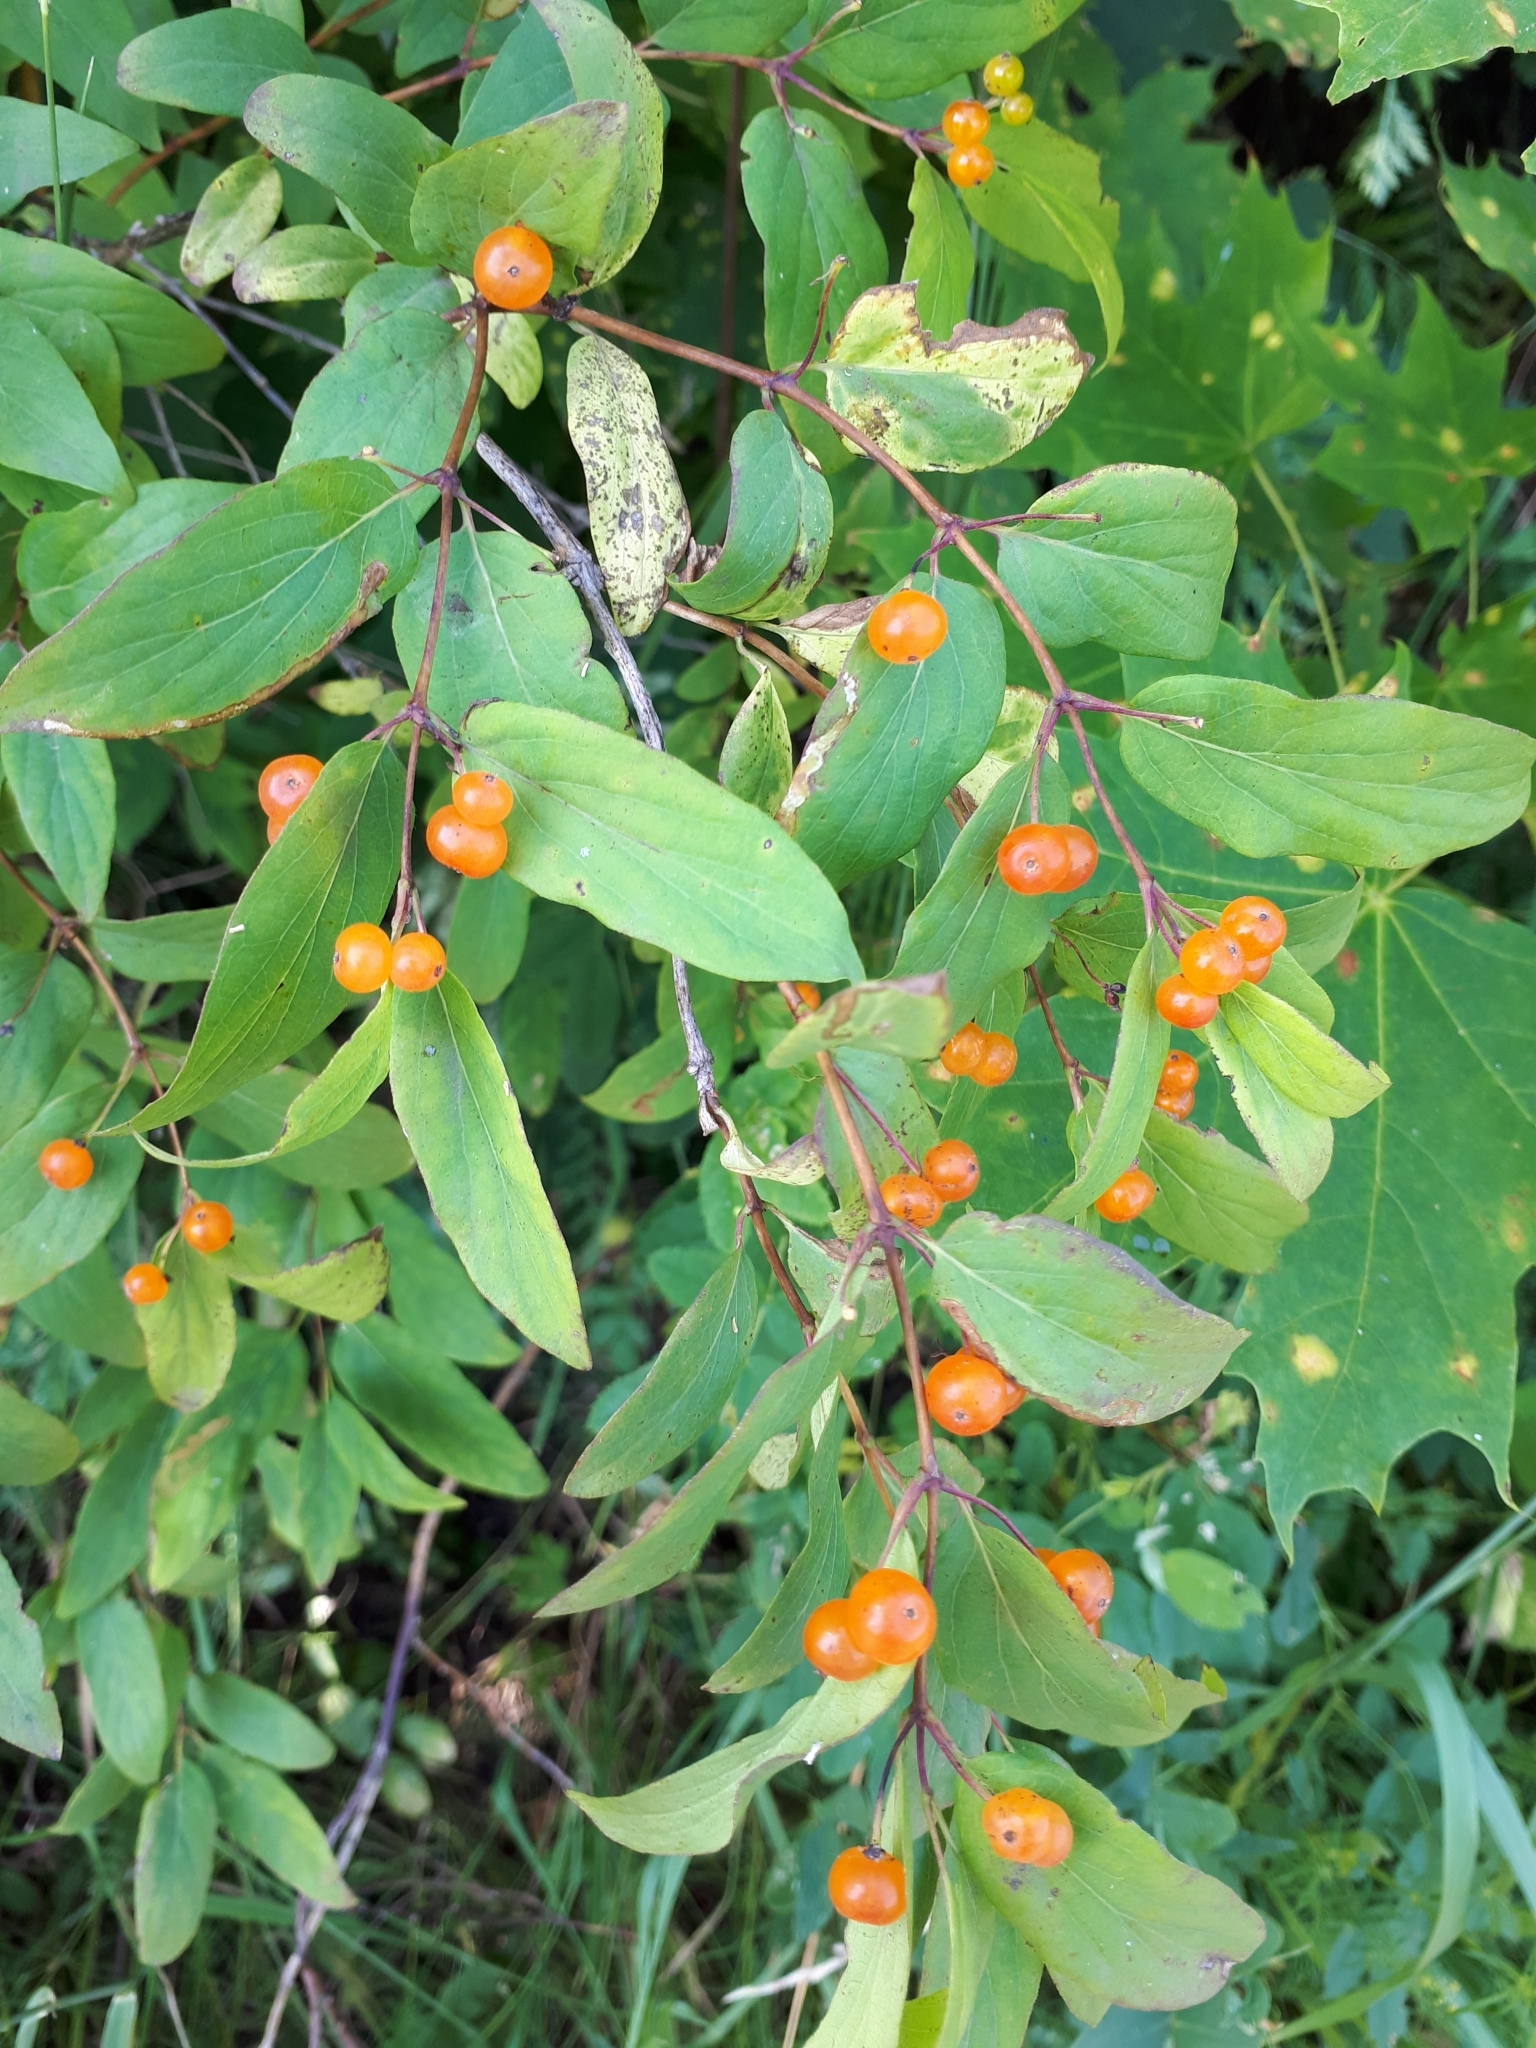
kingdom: Plantae
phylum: Tracheophyta
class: Magnoliopsida
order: Dipsacales
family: Caprifoliaceae
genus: Lonicera
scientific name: Lonicera tatarica
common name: Tatarian honeysuckle
